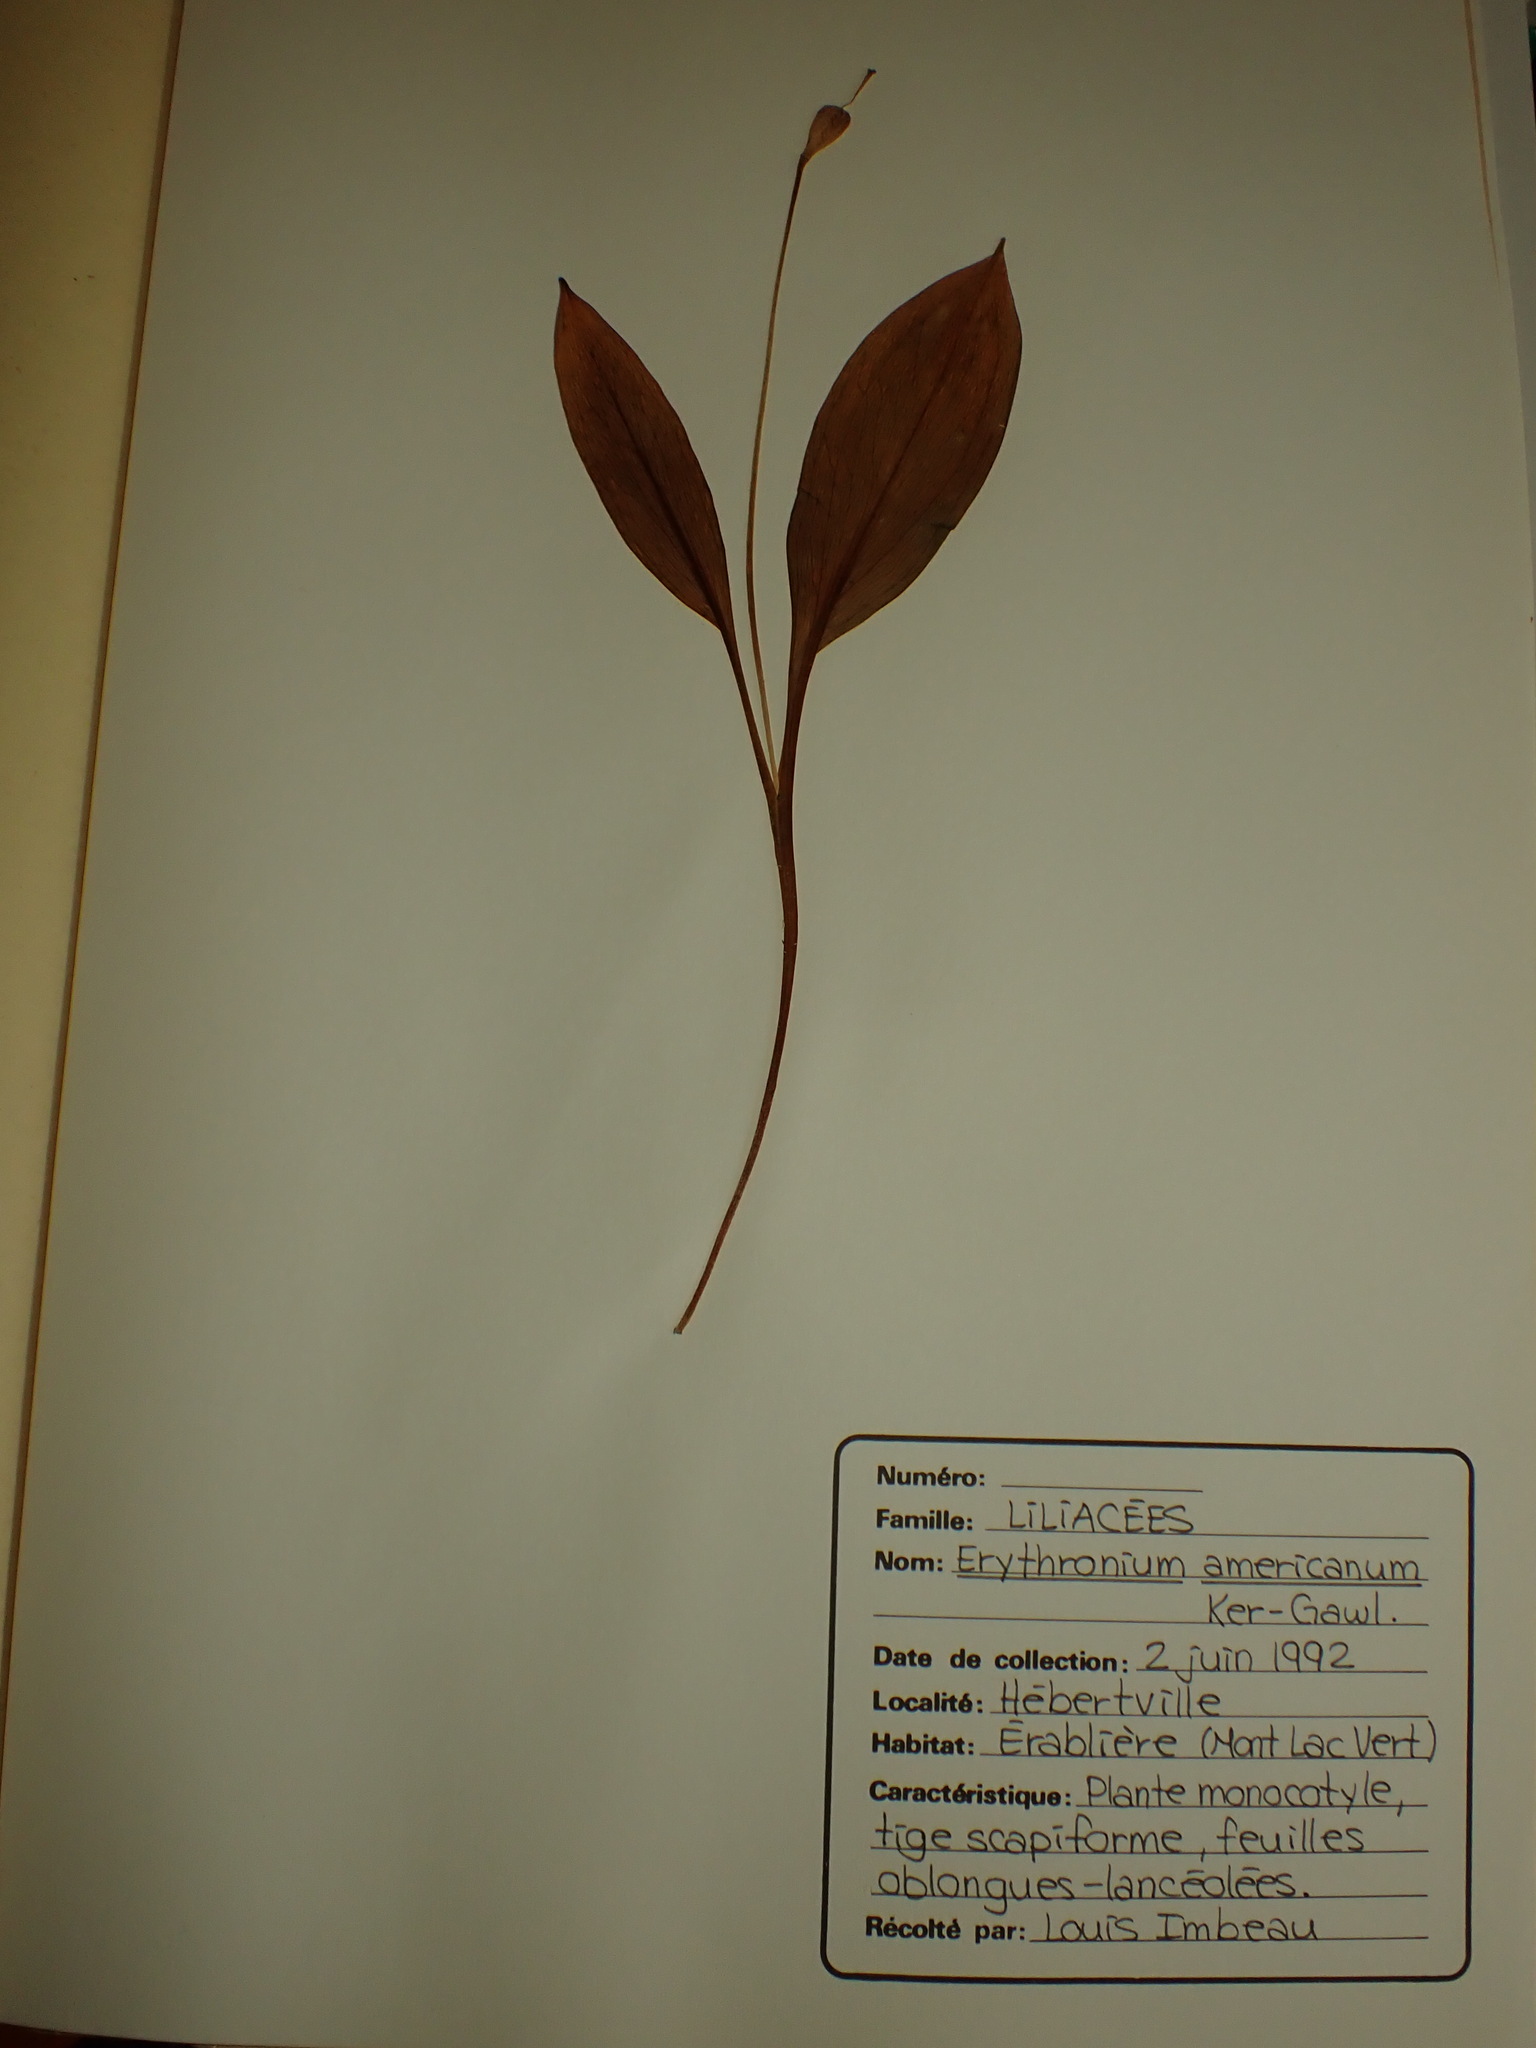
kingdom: Plantae
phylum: Tracheophyta
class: Liliopsida
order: Liliales
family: Liliaceae
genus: Erythronium
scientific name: Erythronium americanum
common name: Yellow adder's-tongue
